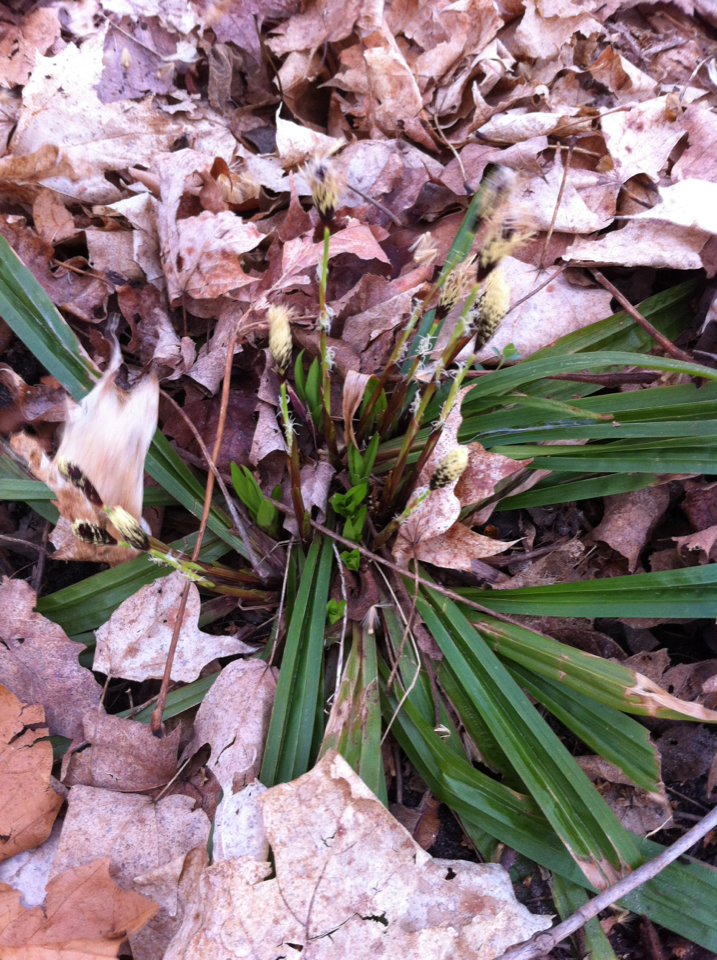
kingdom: Plantae
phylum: Tracheophyta
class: Liliopsida
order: Poales
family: Cyperaceae
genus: Carex
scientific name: Carex plantaginea
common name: Plantain-leaved sedge
